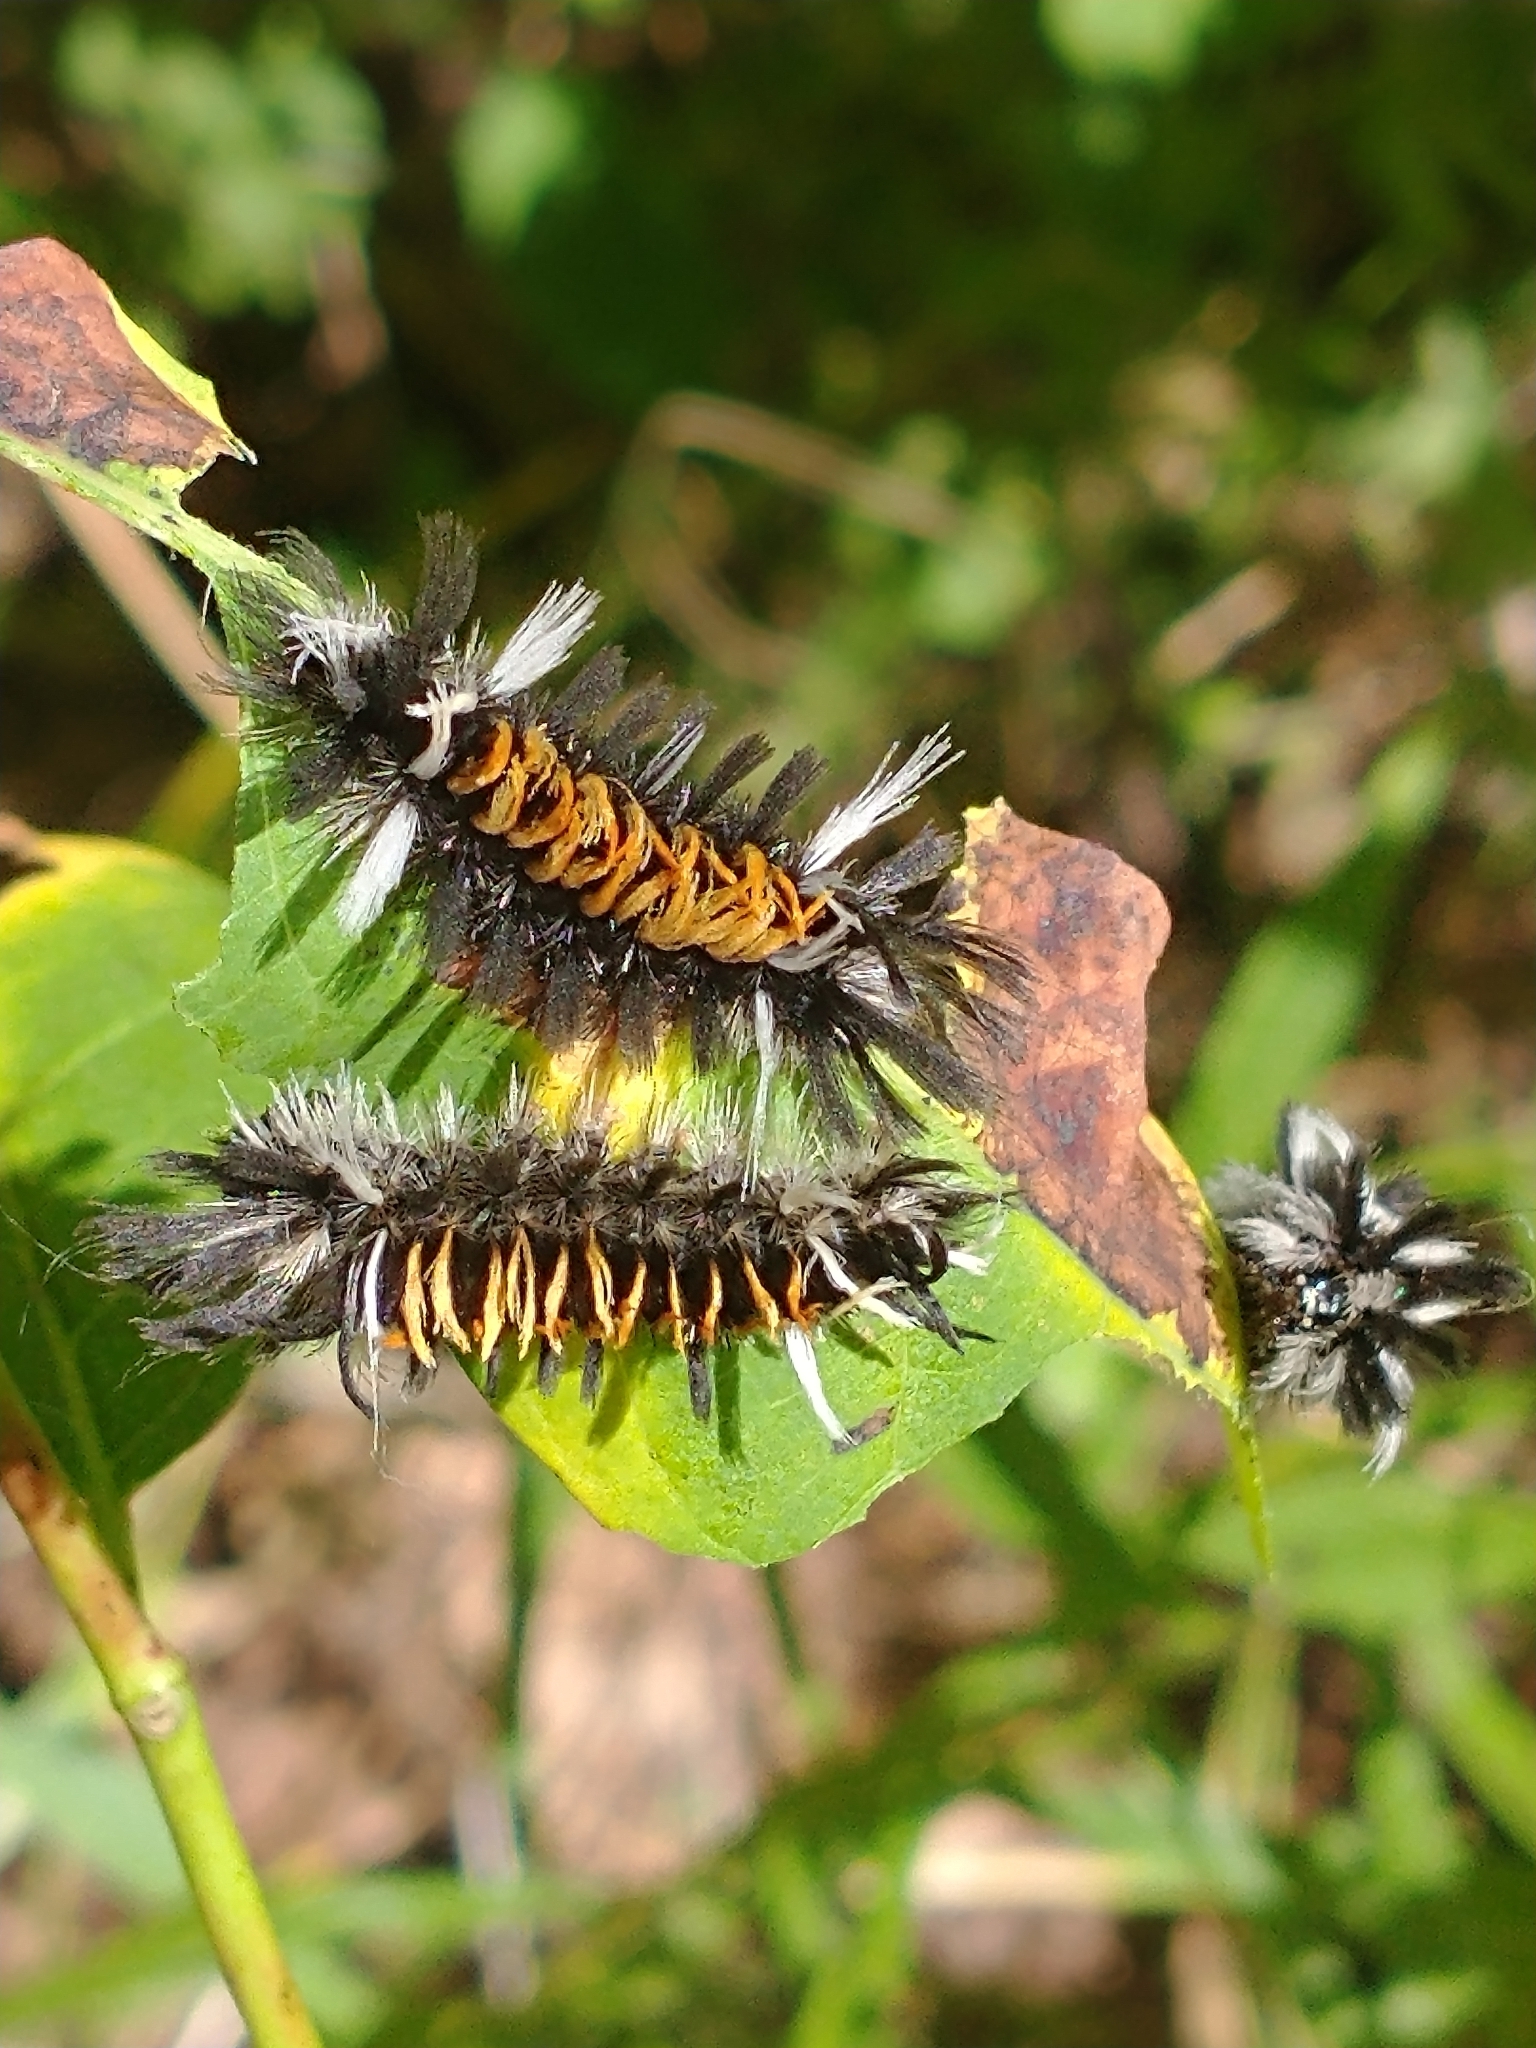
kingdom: Animalia
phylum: Arthropoda
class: Insecta
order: Lepidoptera
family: Erebidae
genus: Euchaetes
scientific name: Euchaetes egle
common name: Milkweed tussock moth
